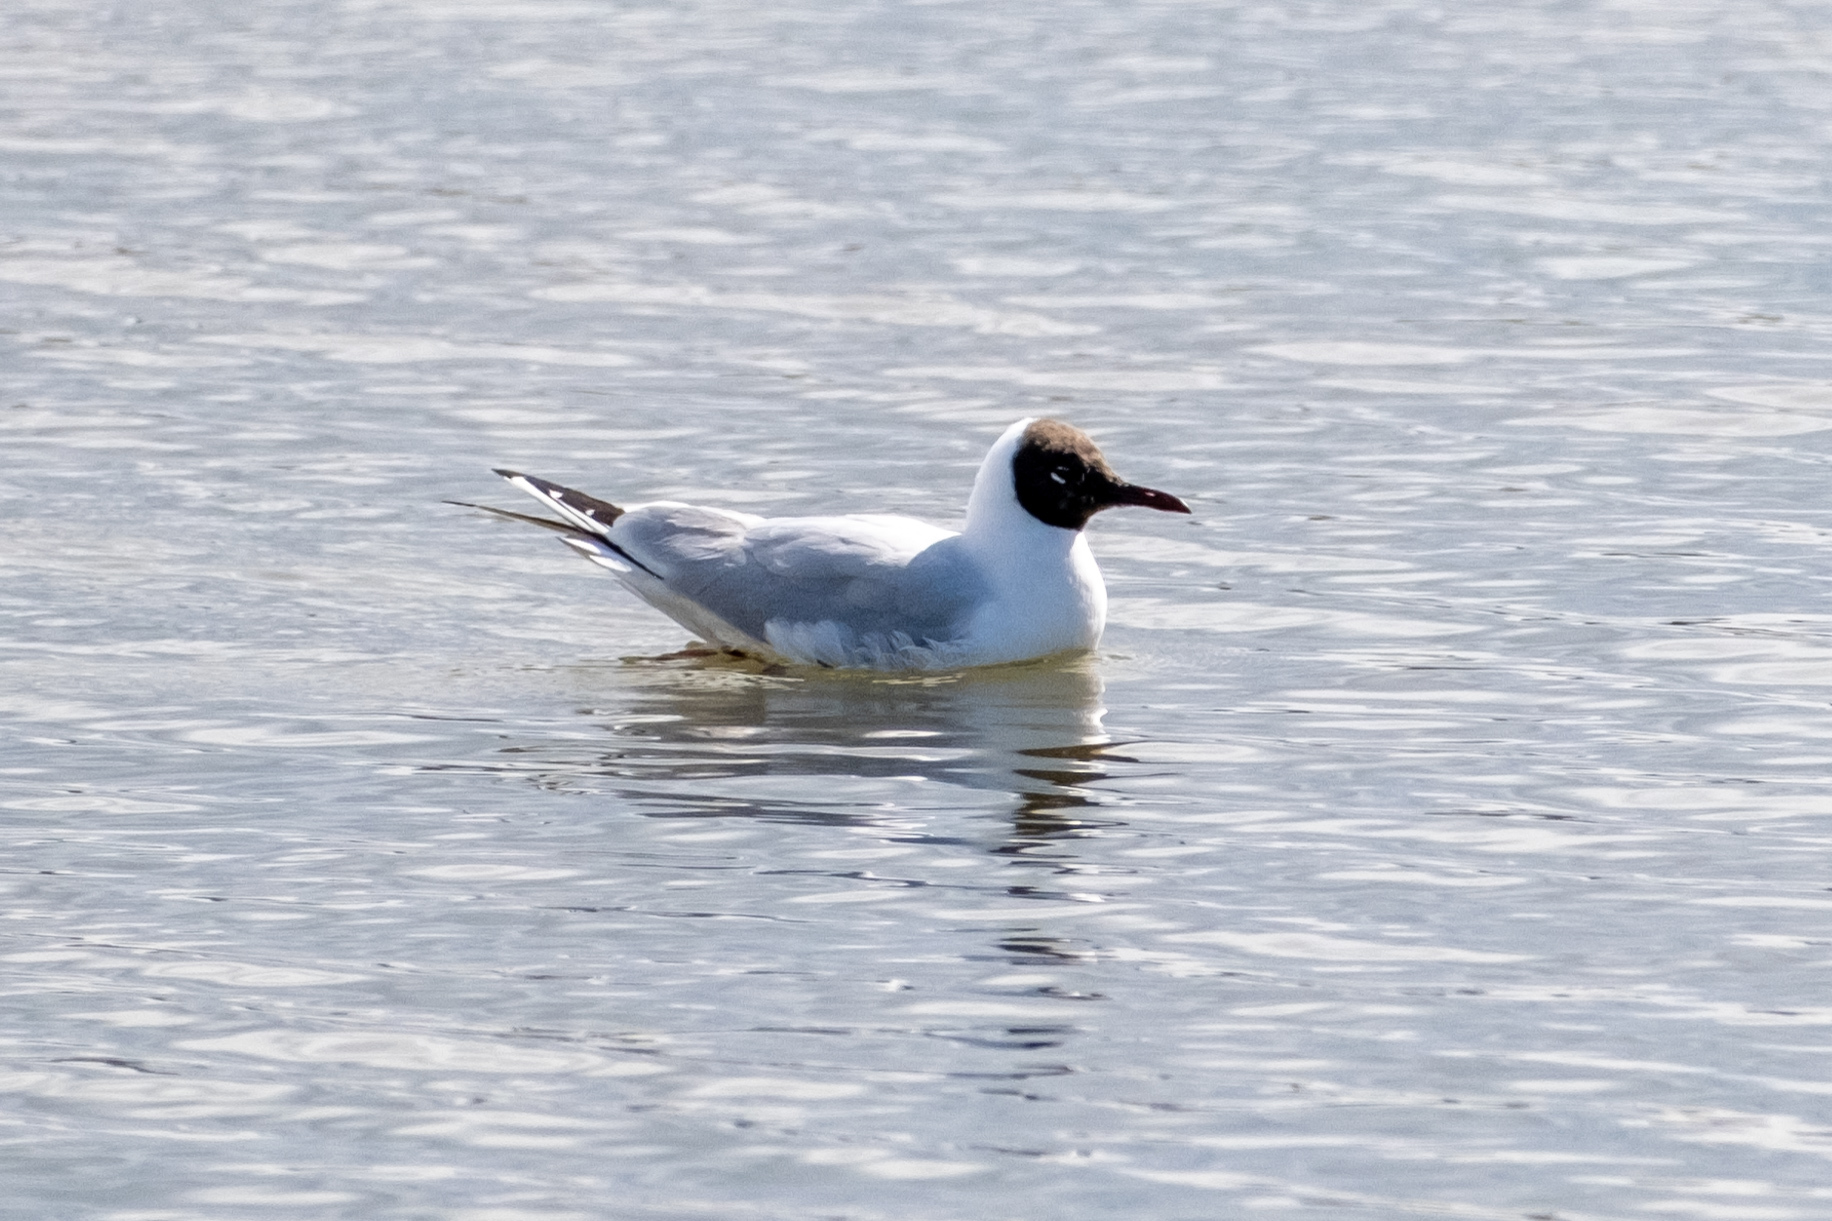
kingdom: Animalia
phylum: Chordata
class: Aves
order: Charadriiformes
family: Laridae
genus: Chroicocephalus
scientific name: Chroicocephalus ridibundus
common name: Black-headed gull
